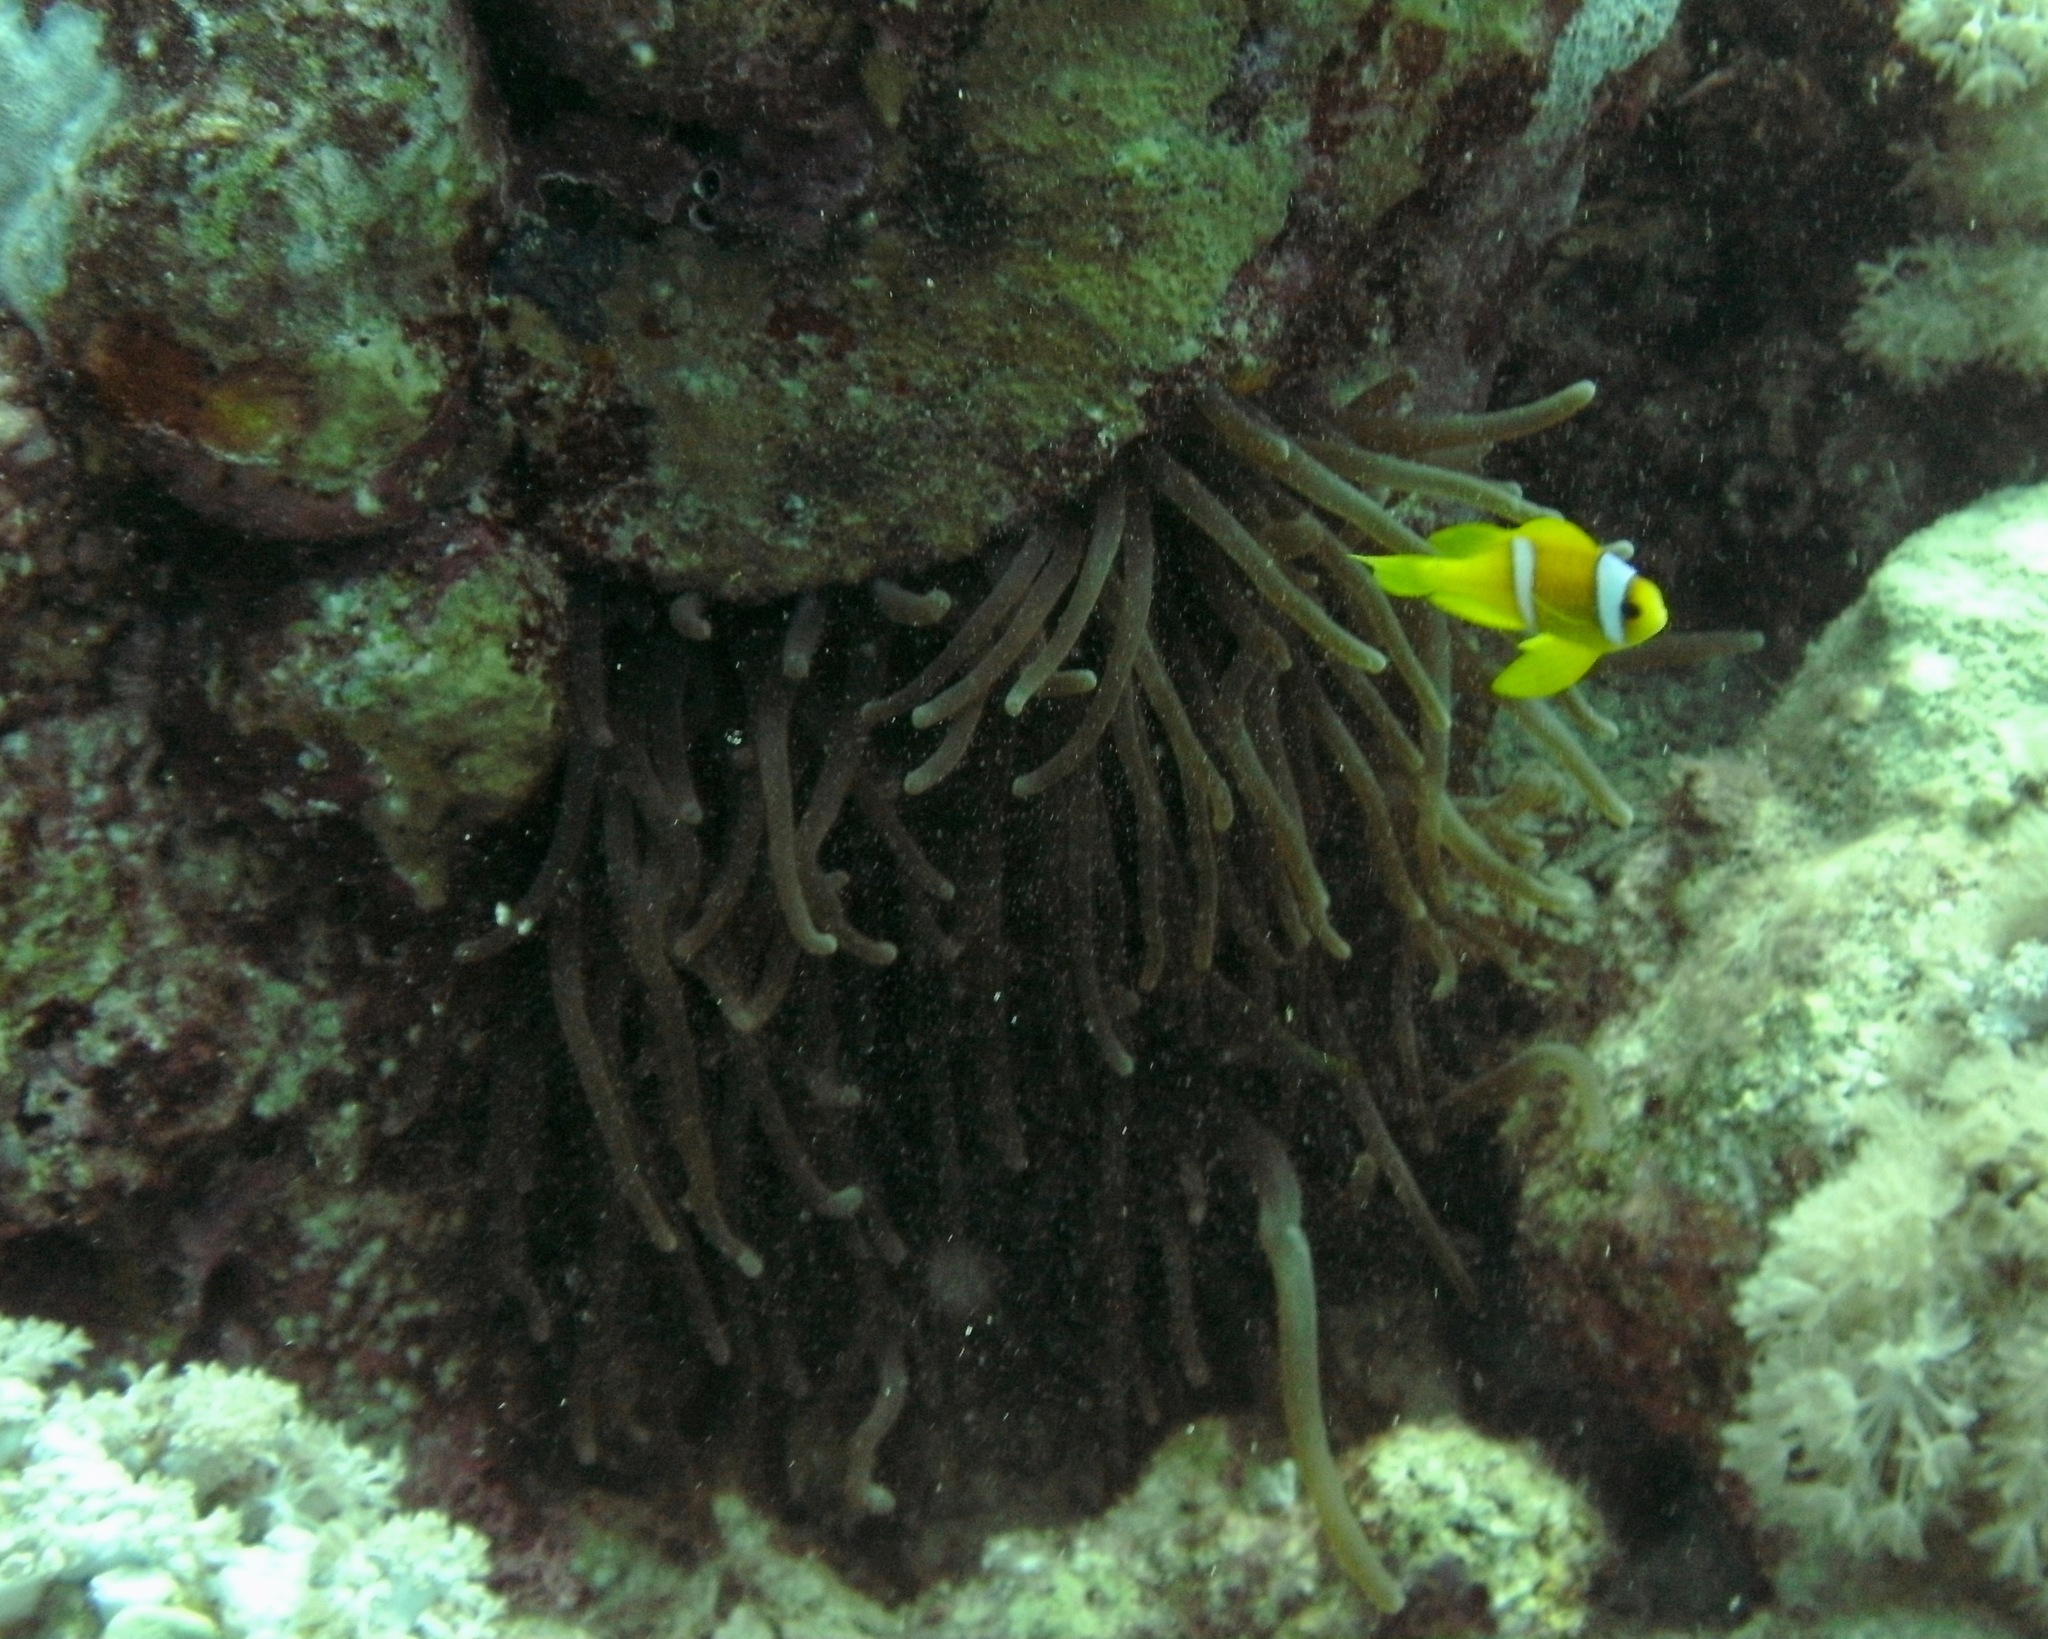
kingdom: Animalia
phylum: Chordata
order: Perciformes
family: Pomacentridae
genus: Amphiprion
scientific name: Amphiprion bicinctus
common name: Two-banded anemonefish
